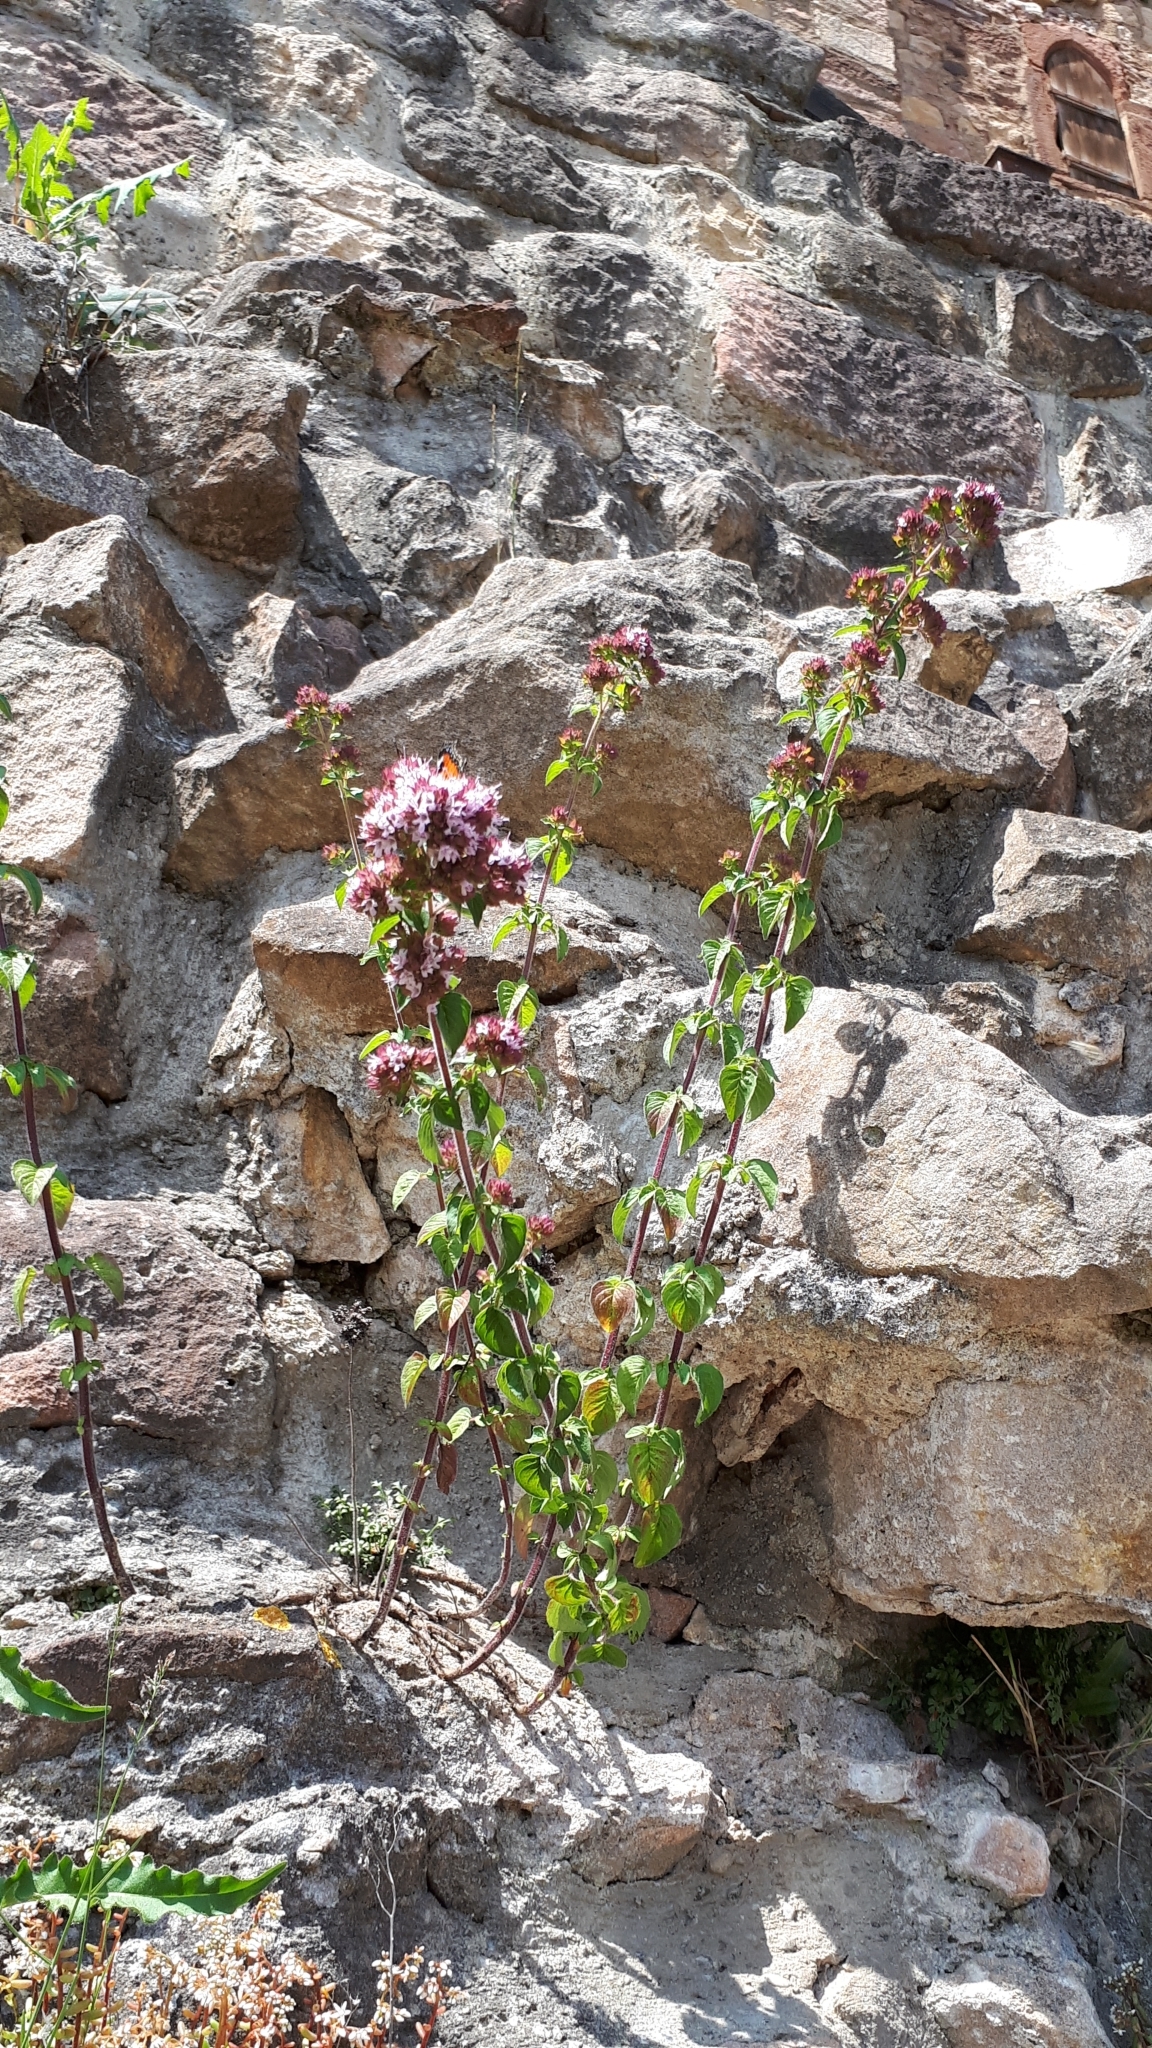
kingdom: Plantae
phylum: Tracheophyta
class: Magnoliopsida
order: Lamiales
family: Lamiaceae
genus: Origanum
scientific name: Origanum vulgare
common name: Wild marjoram
